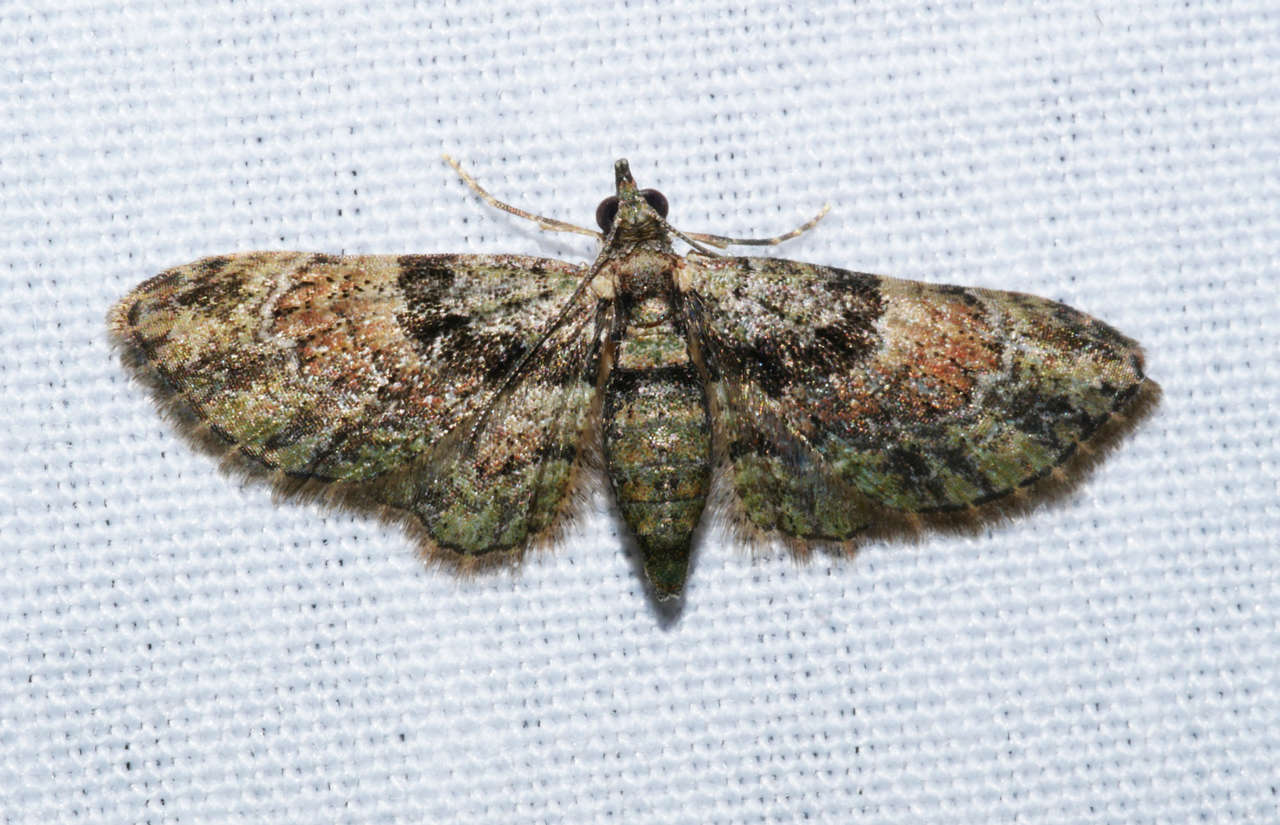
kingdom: Animalia
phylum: Arthropoda
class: Insecta
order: Lepidoptera
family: Geometridae
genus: Chloroclystis
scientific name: Chloroclystis catastreptes
